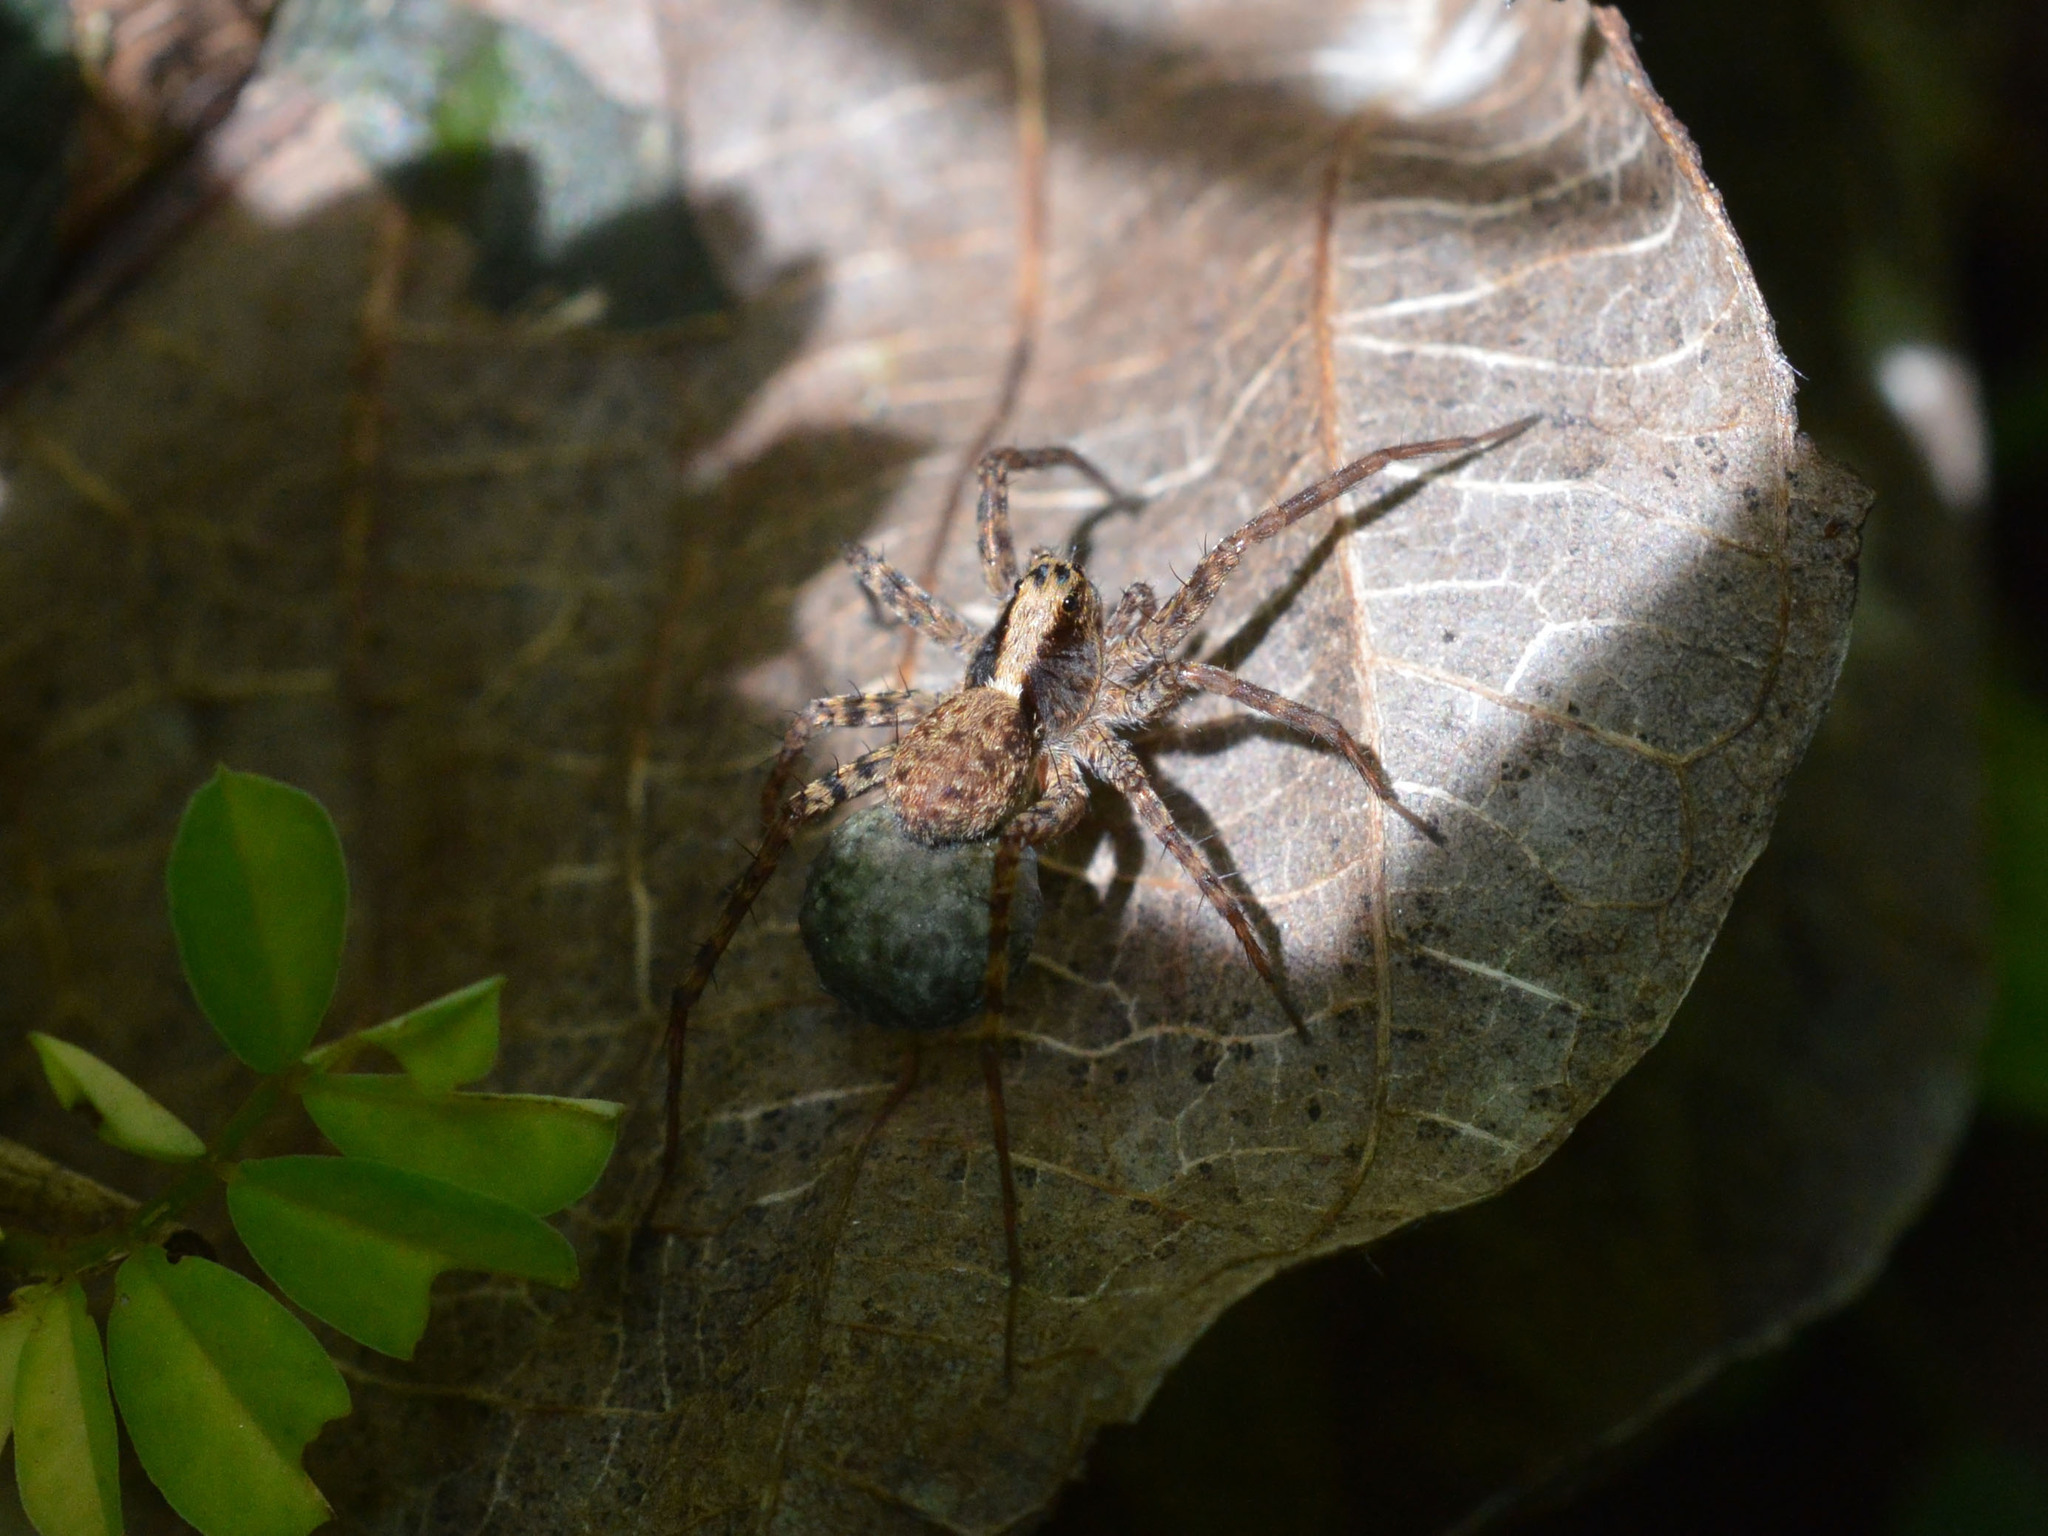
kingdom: Animalia
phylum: Arthropoda
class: Arachnida
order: Araneae
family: Lycosidae
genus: Pardosa
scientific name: Pardosa
